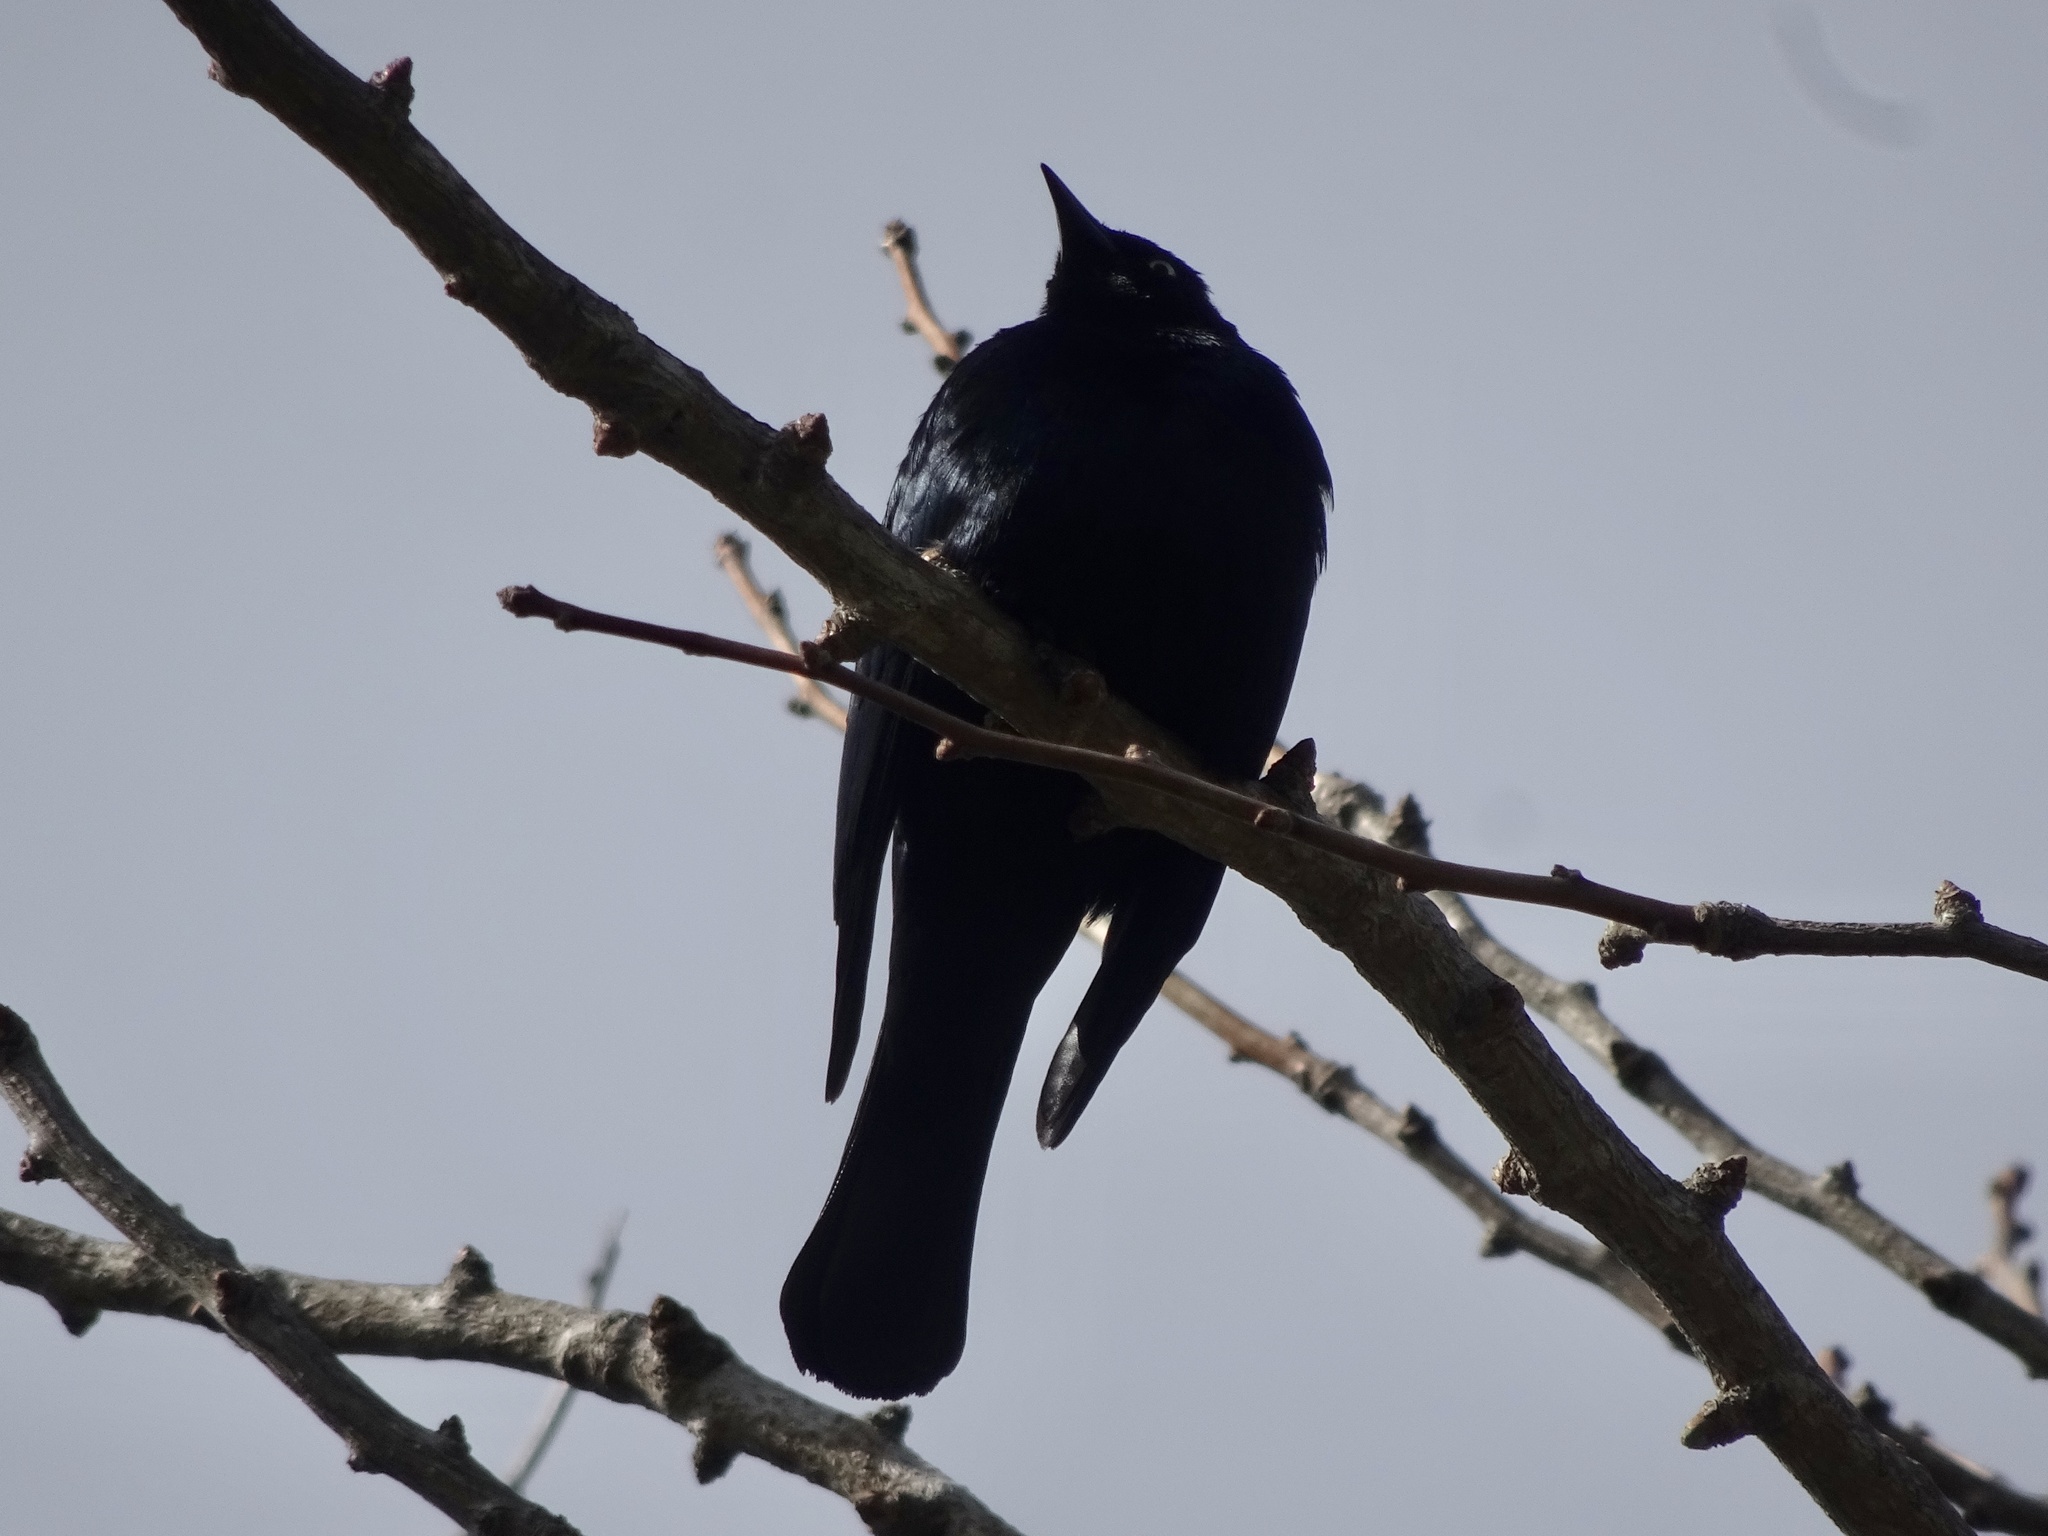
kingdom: Animalia
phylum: Chordata
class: Aves
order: Passeriformes
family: Icteridae
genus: Euphagus
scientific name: Euphagus cyanocephalus
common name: Brewer's blackbird
